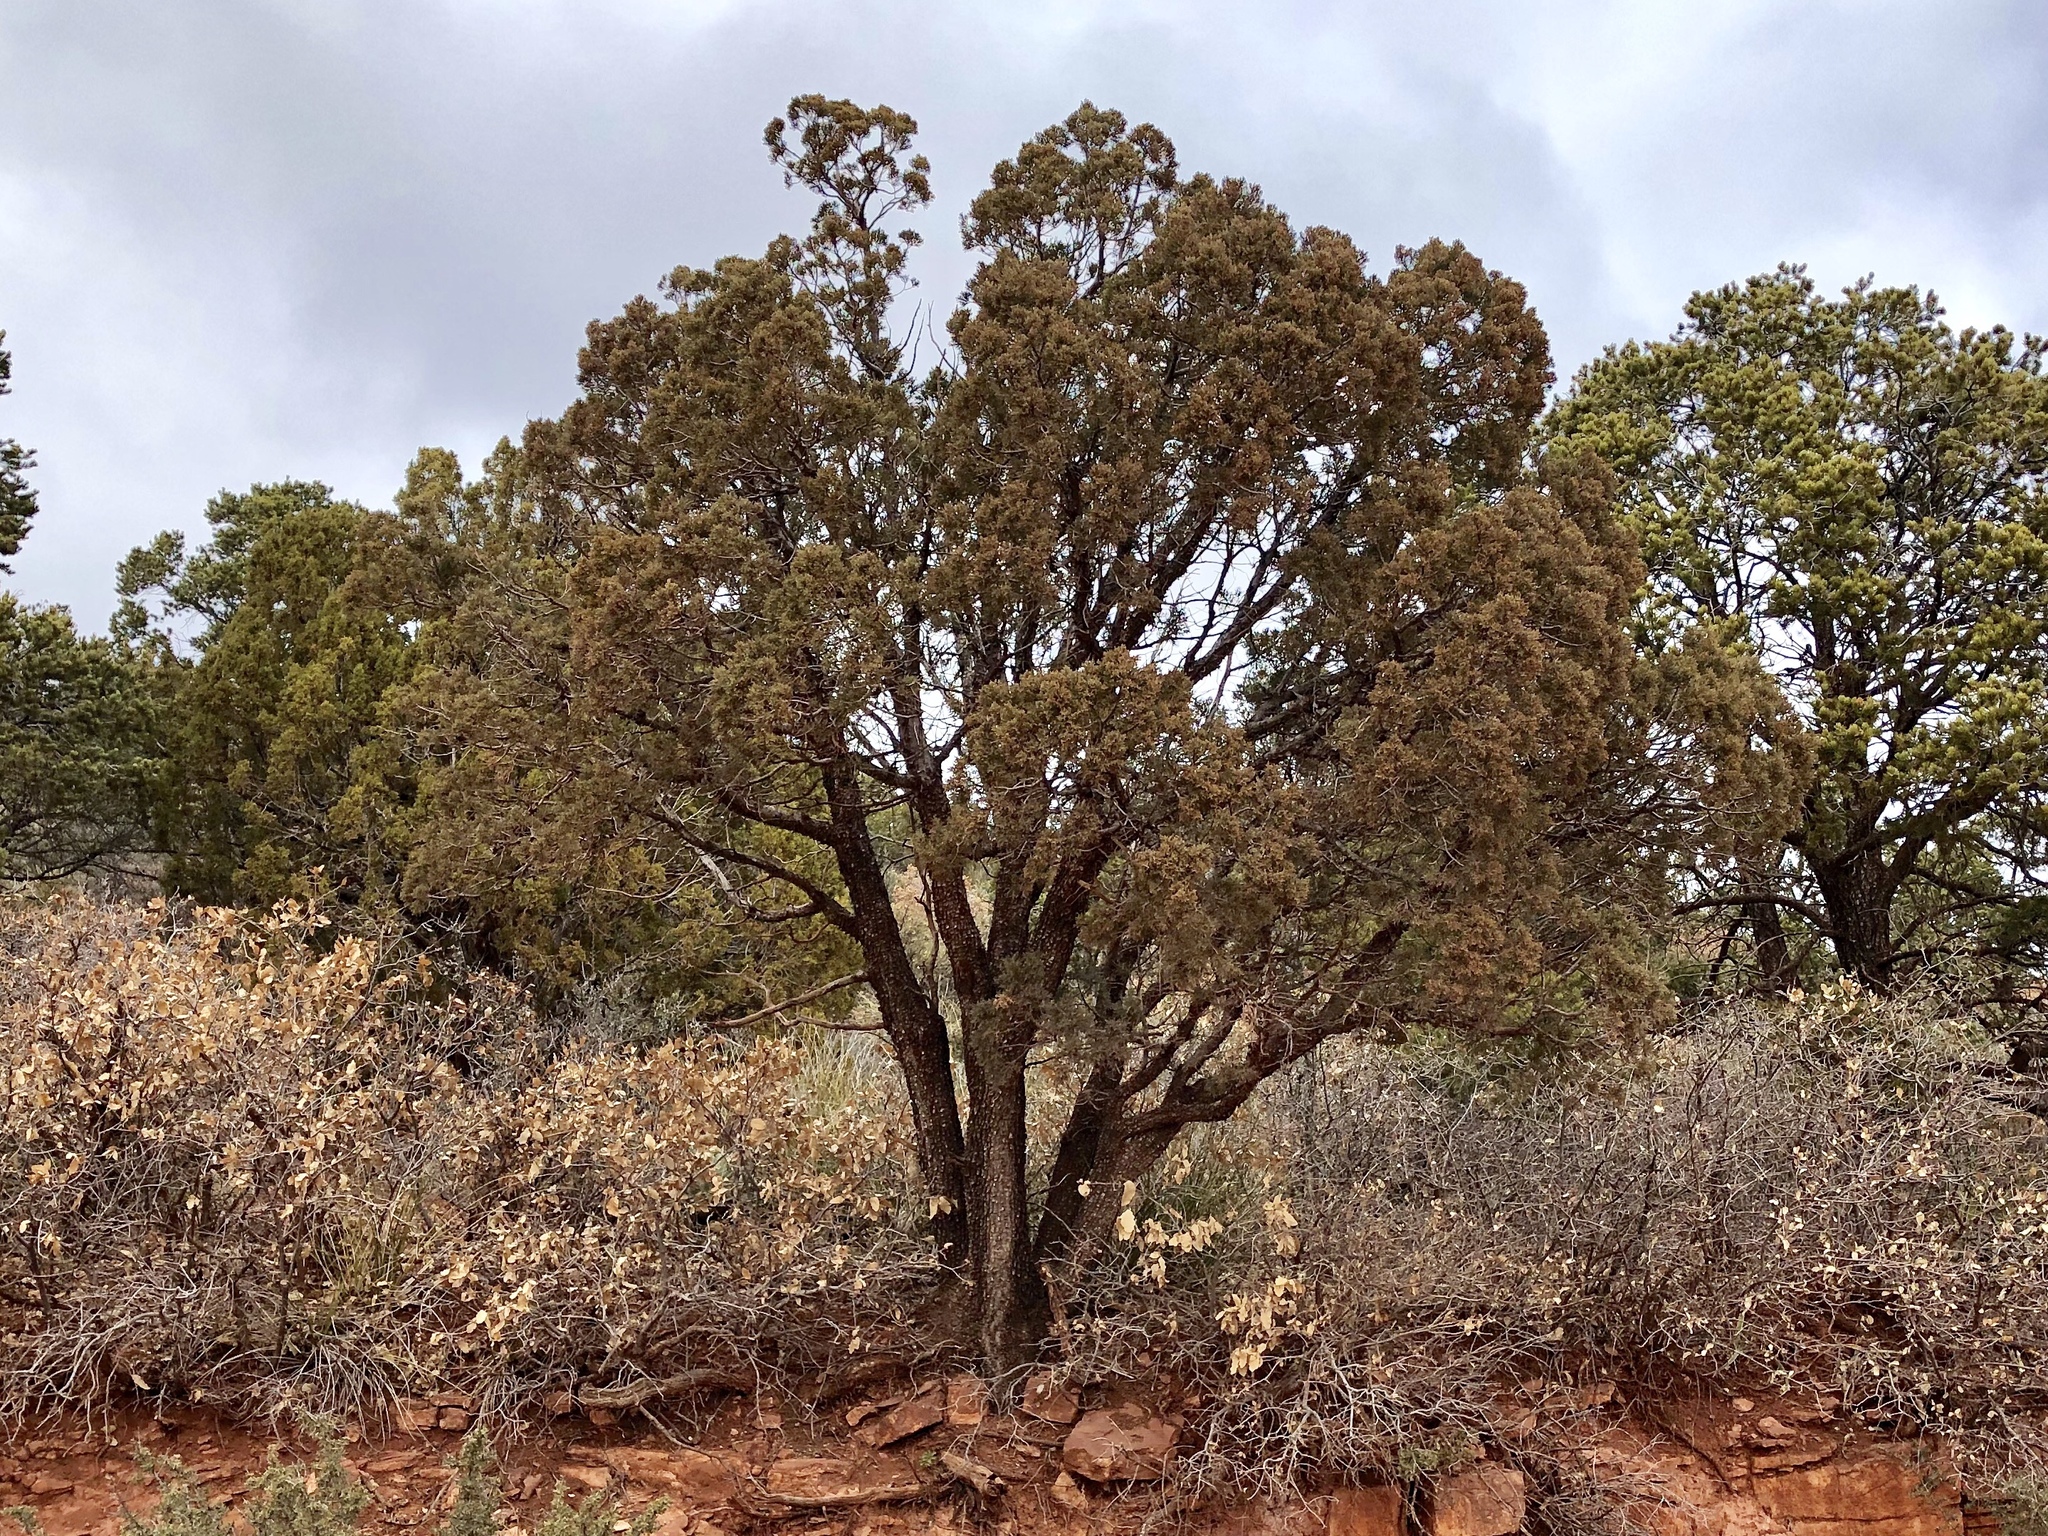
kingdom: Plantae
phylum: Tracheophyta
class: Pinopsida
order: Pinales
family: Cupressaceae
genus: Juniperus
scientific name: Juniperus deppeana
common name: Alligator juniper
